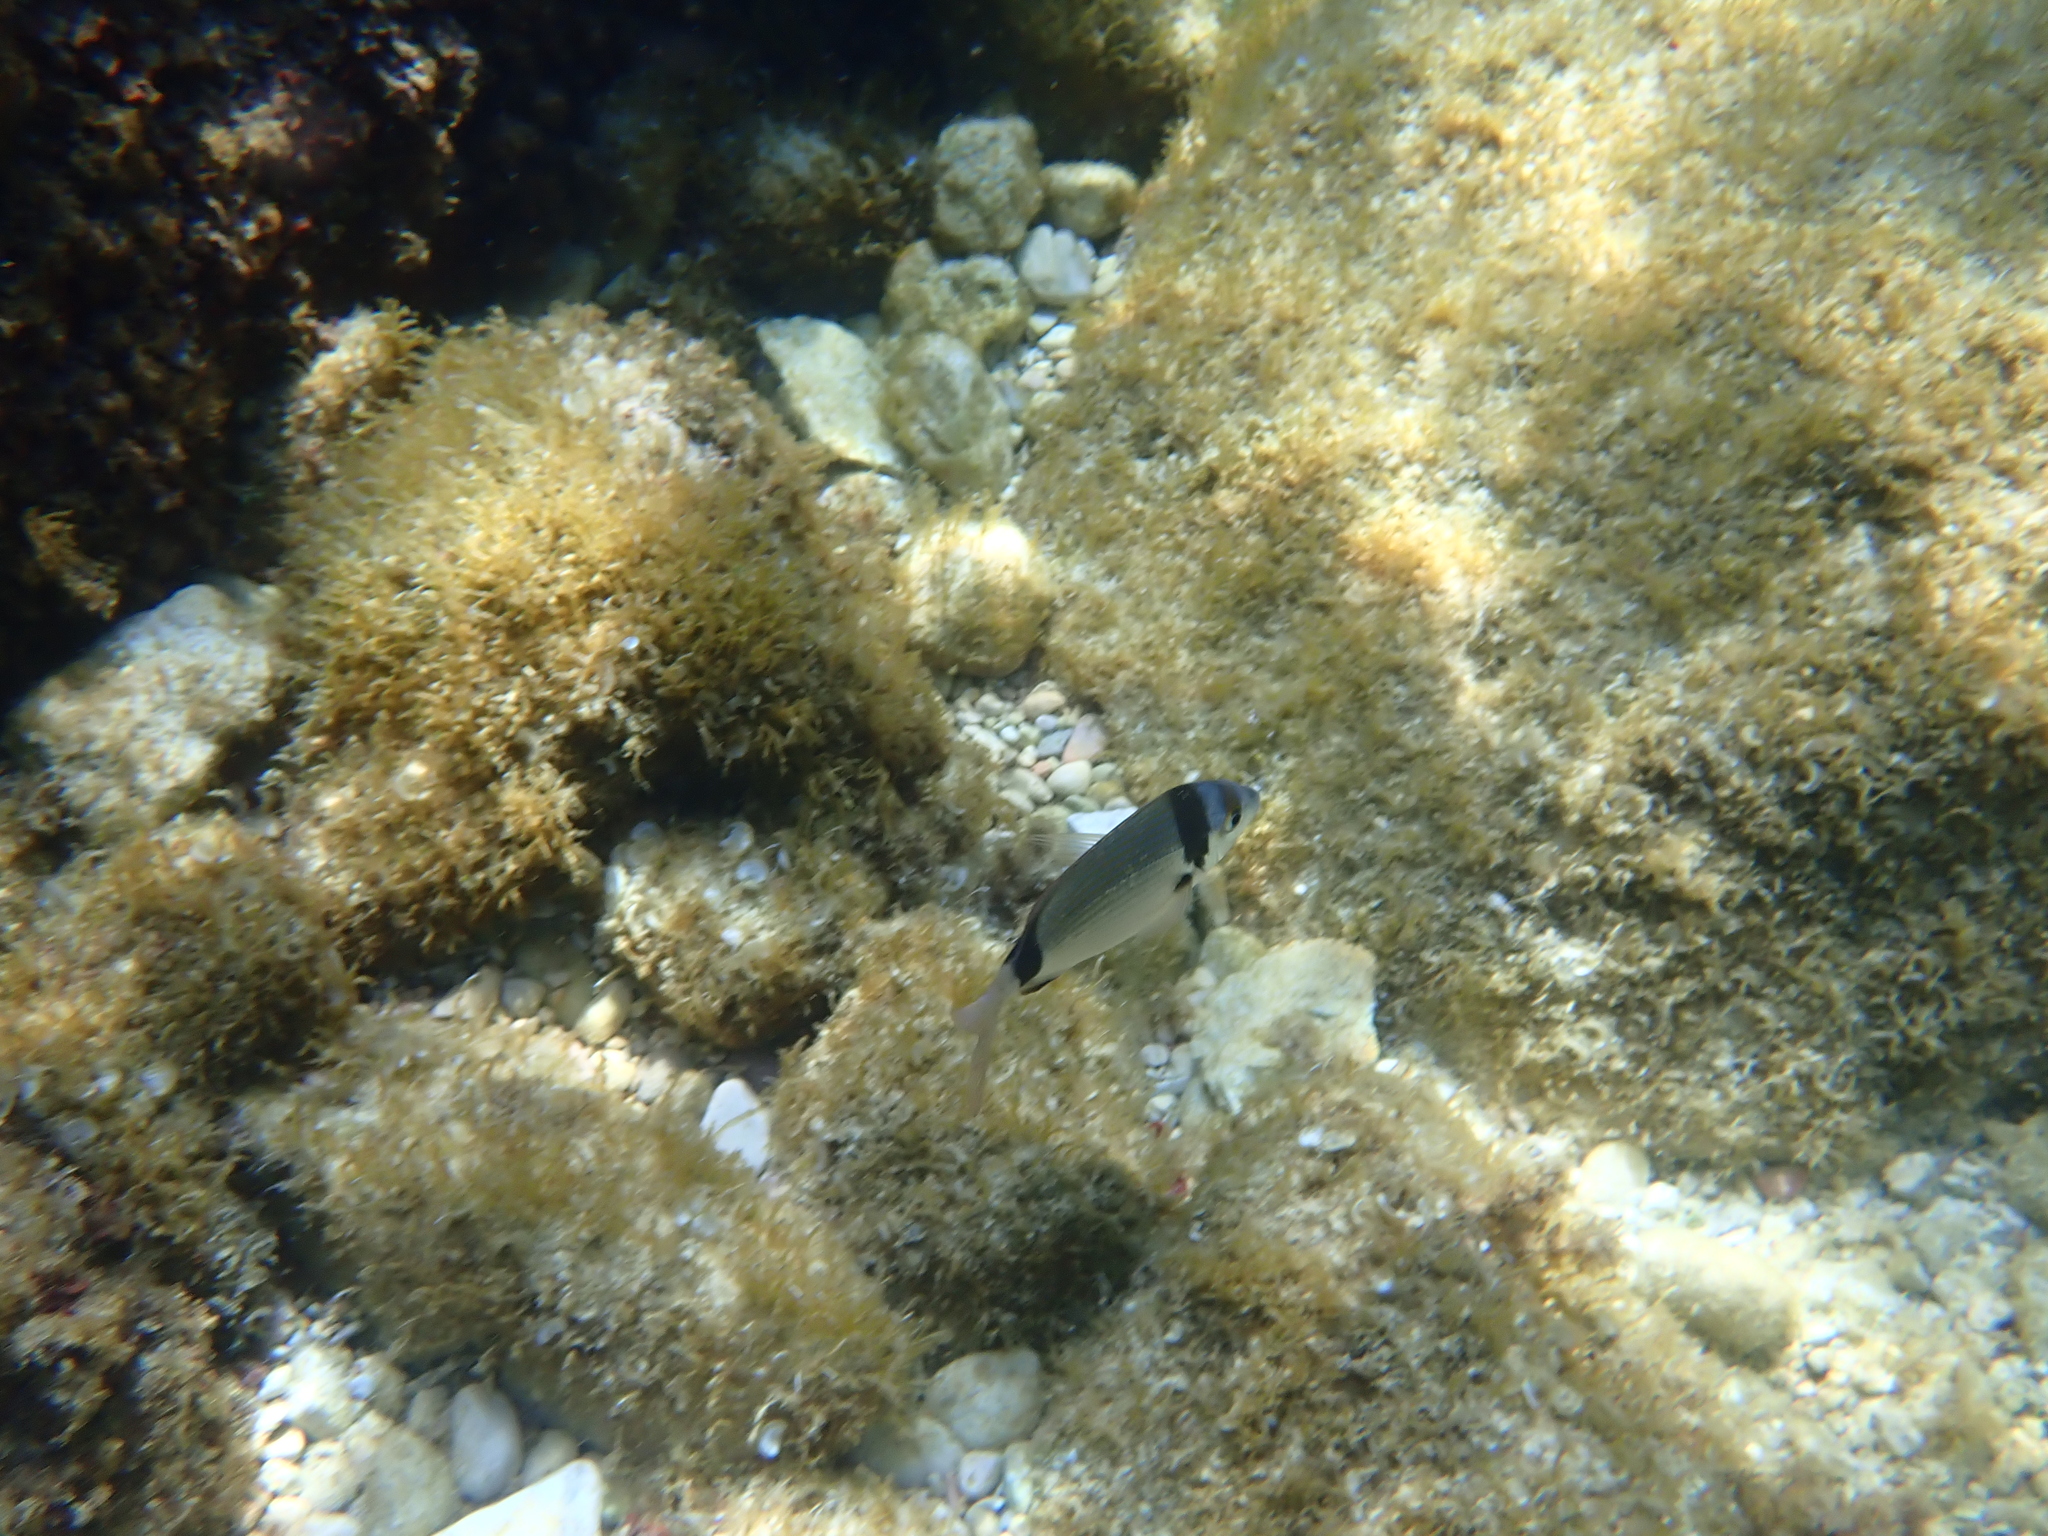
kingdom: Animalia
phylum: Chordata
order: Perciformes
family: Sparidae
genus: Diplodus
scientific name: Diplodus vulgaris
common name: Common two-banded seabream
